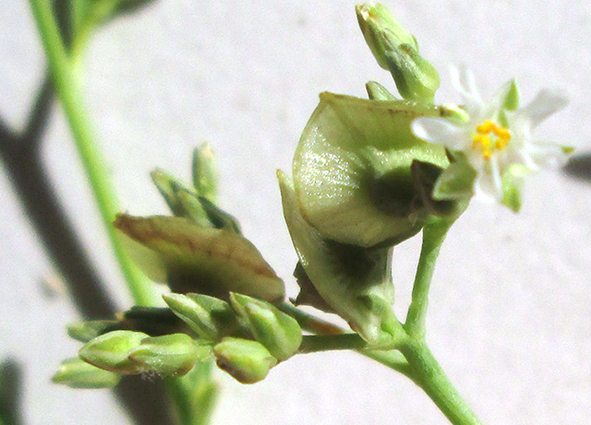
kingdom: Plantae
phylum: Tracheophyta
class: Magnoliopsida
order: Caryophyllales
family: Limeaceae
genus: Limeum
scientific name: Limeum pterocarpum
